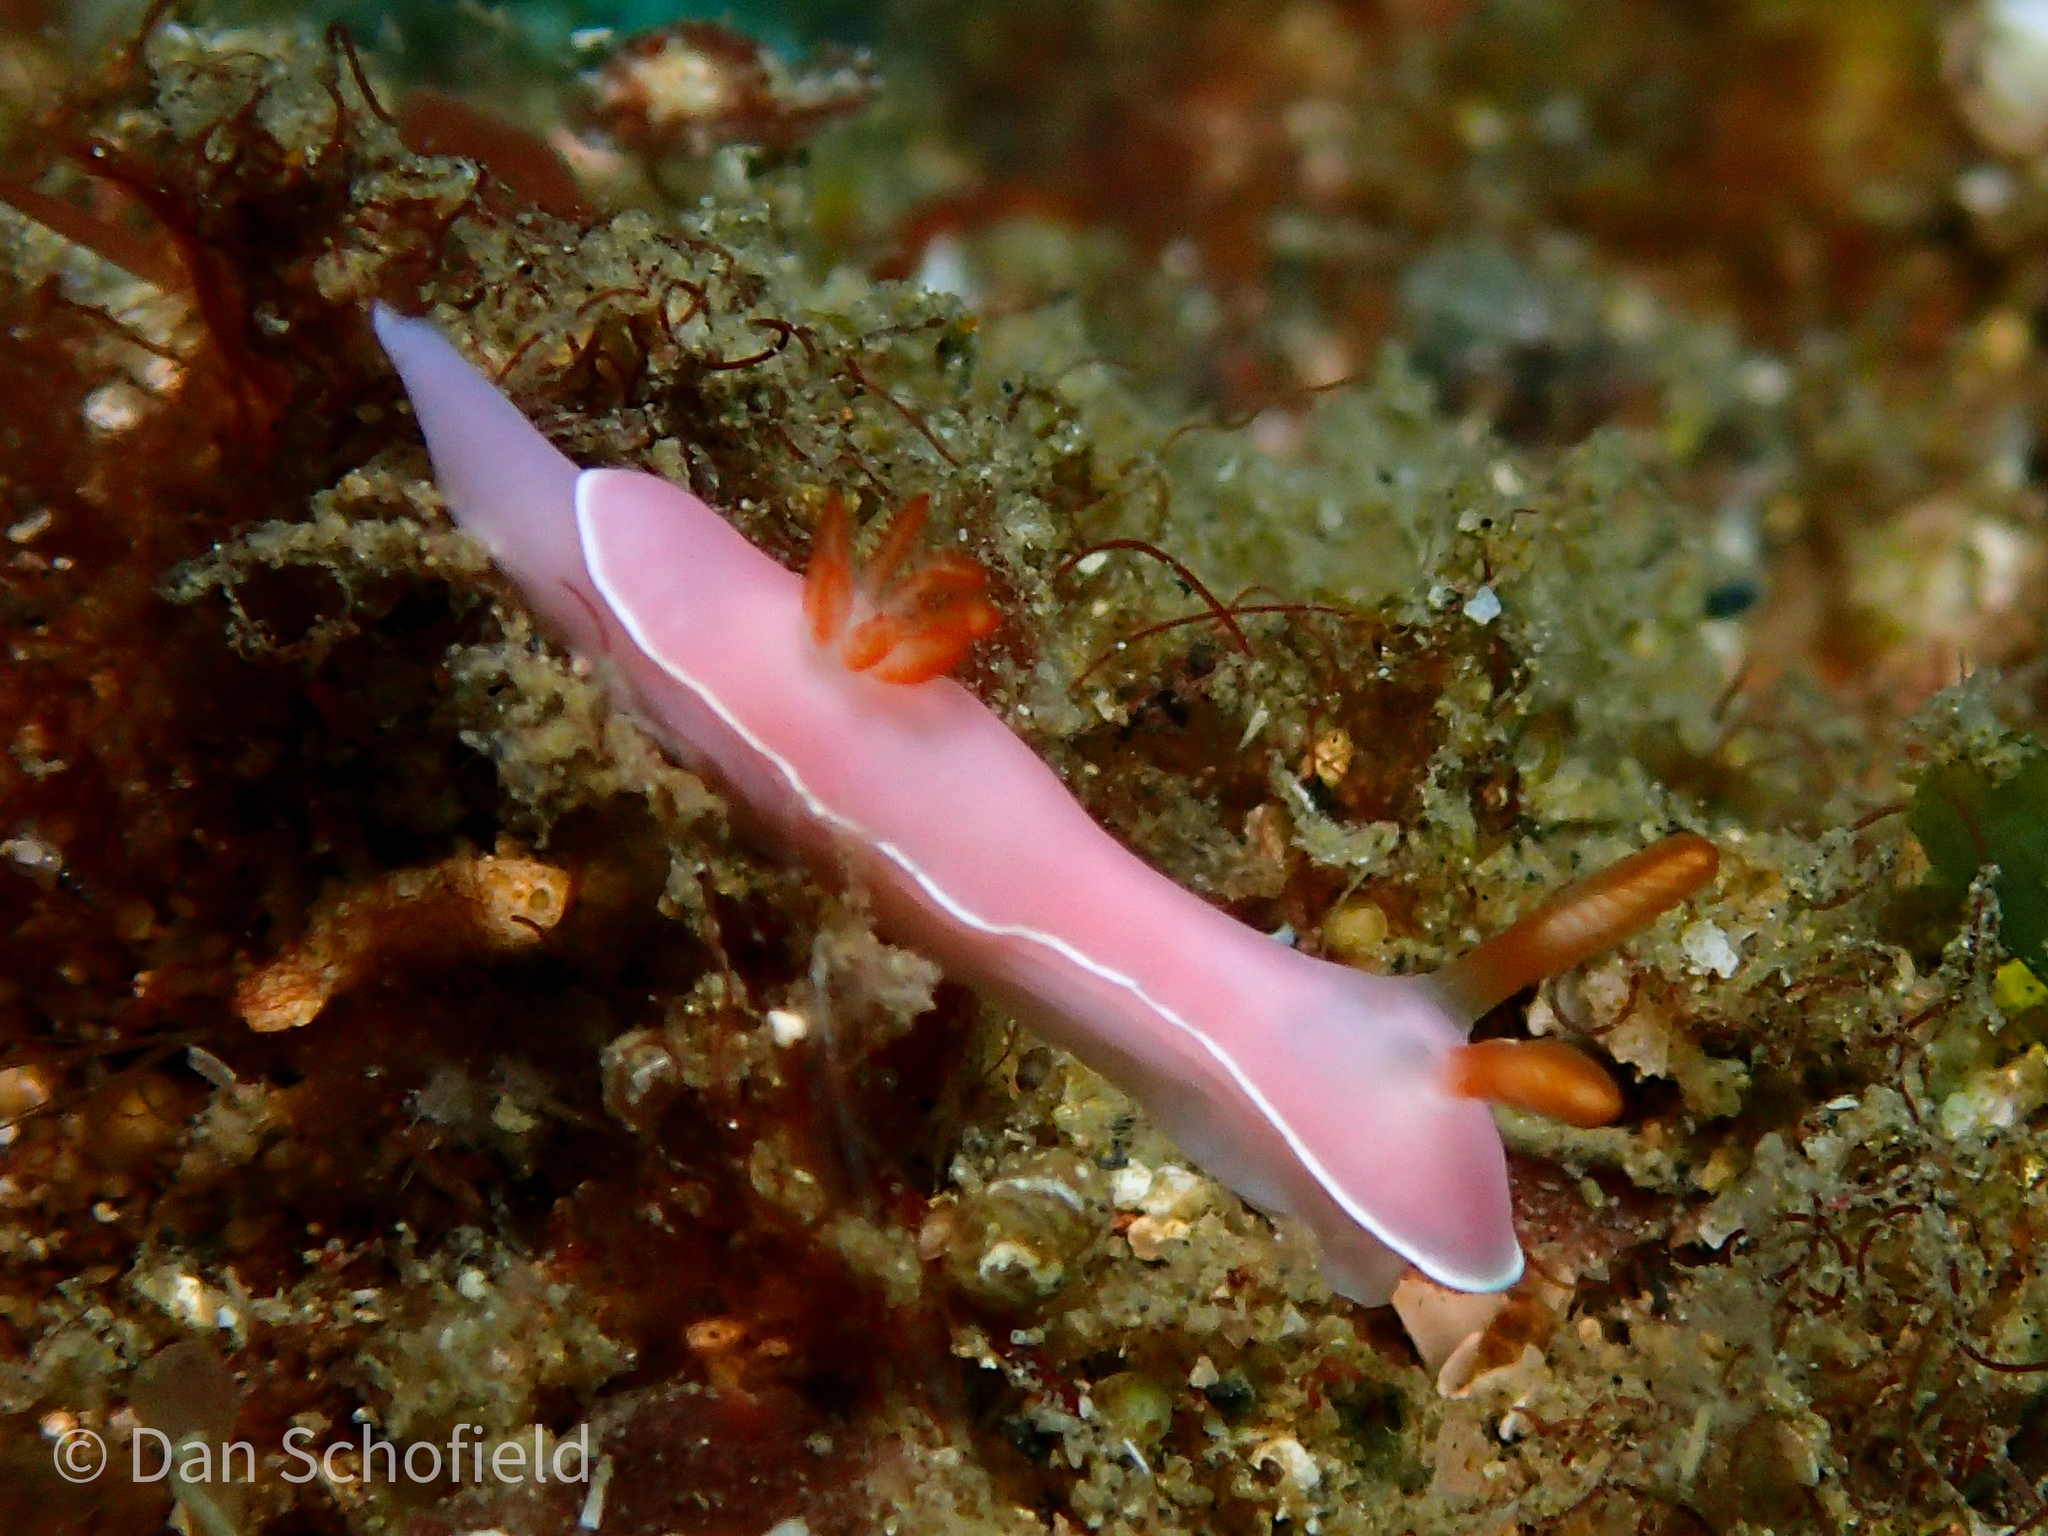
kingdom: Animalia
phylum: Mollusca
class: Gastropoda
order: Nudibranchia
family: Chromodorididae
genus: Hypselodoris
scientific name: Hypselodoris bullockii
